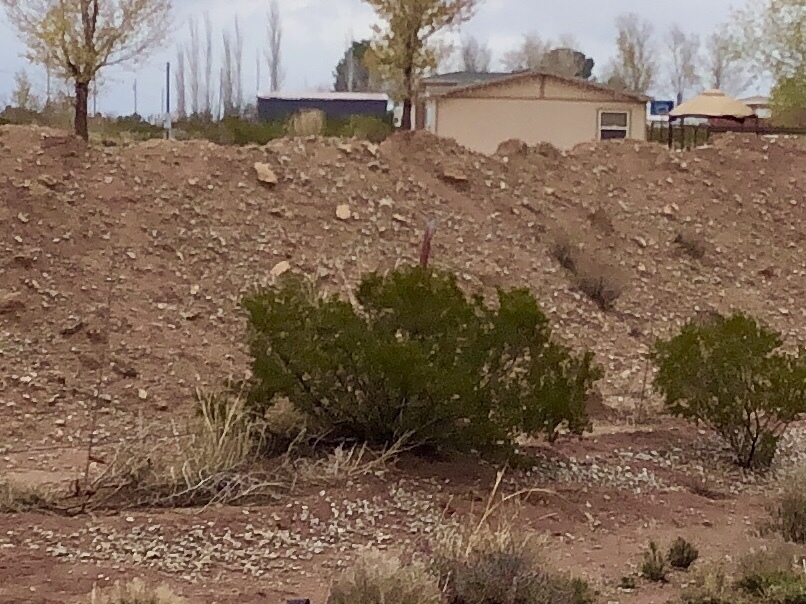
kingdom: Plantae
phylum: Tracheophyta
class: Magnoliopsida
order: Zygophyllales
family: Zygophyllaceae
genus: Larrea
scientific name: Larrea tridentata
